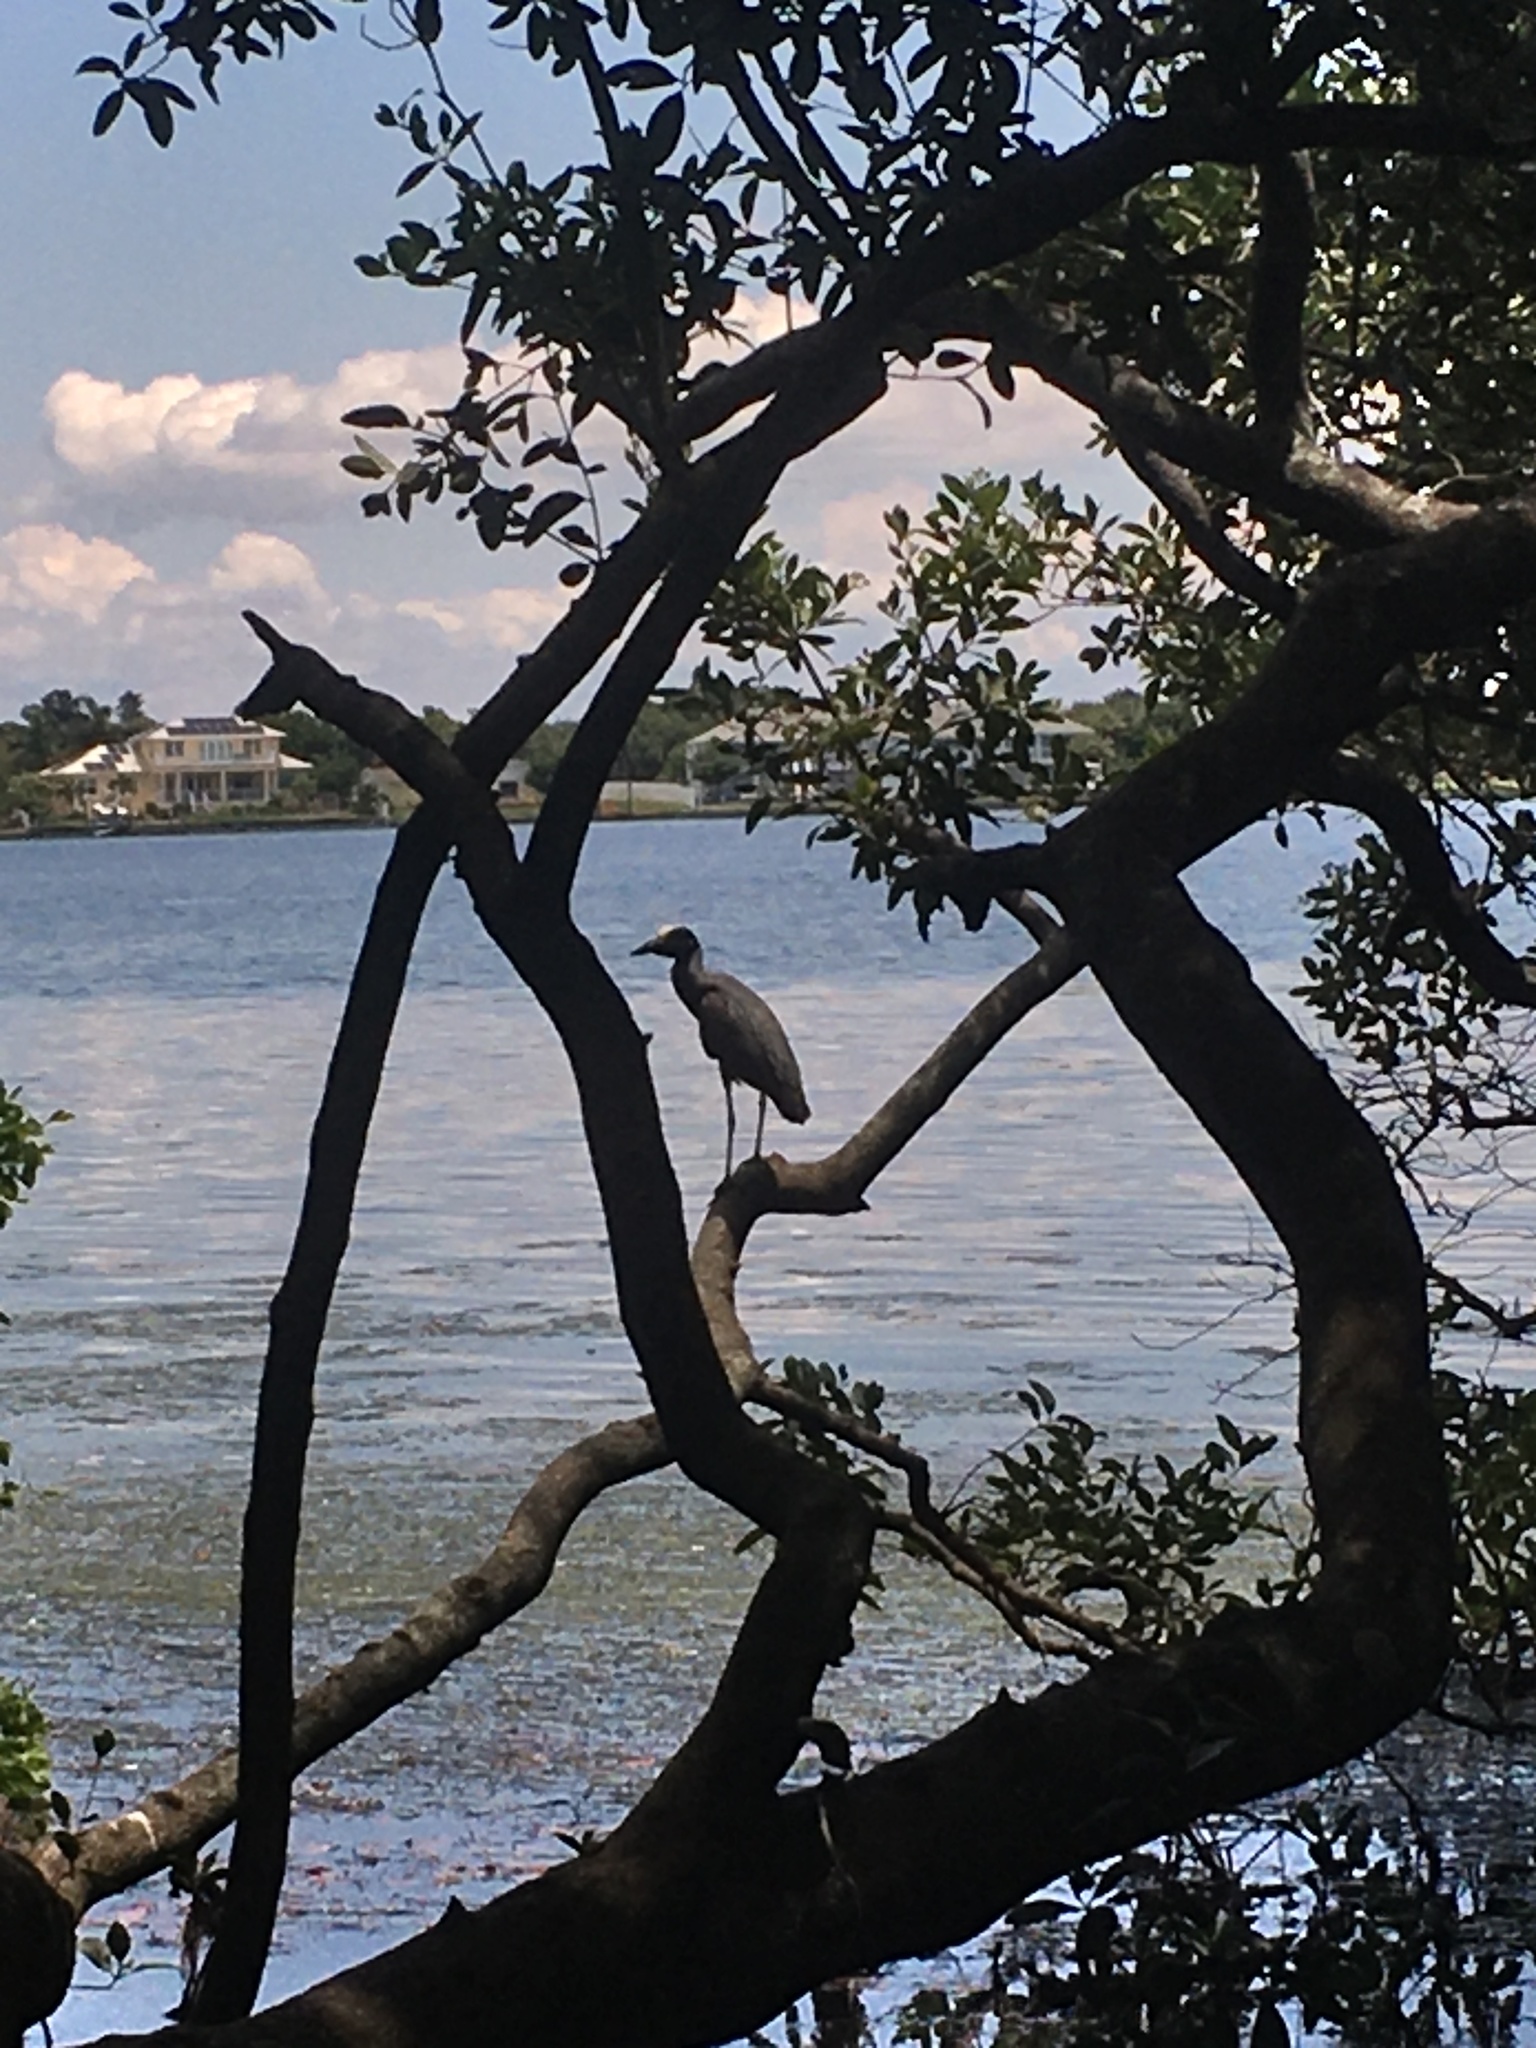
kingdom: Animalia
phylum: Chordata
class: Aves
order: Pelecaniformes
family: Ardeidae
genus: Nyctanassa
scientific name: Nyctanassa violacea
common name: Yellow-crowned night heron
